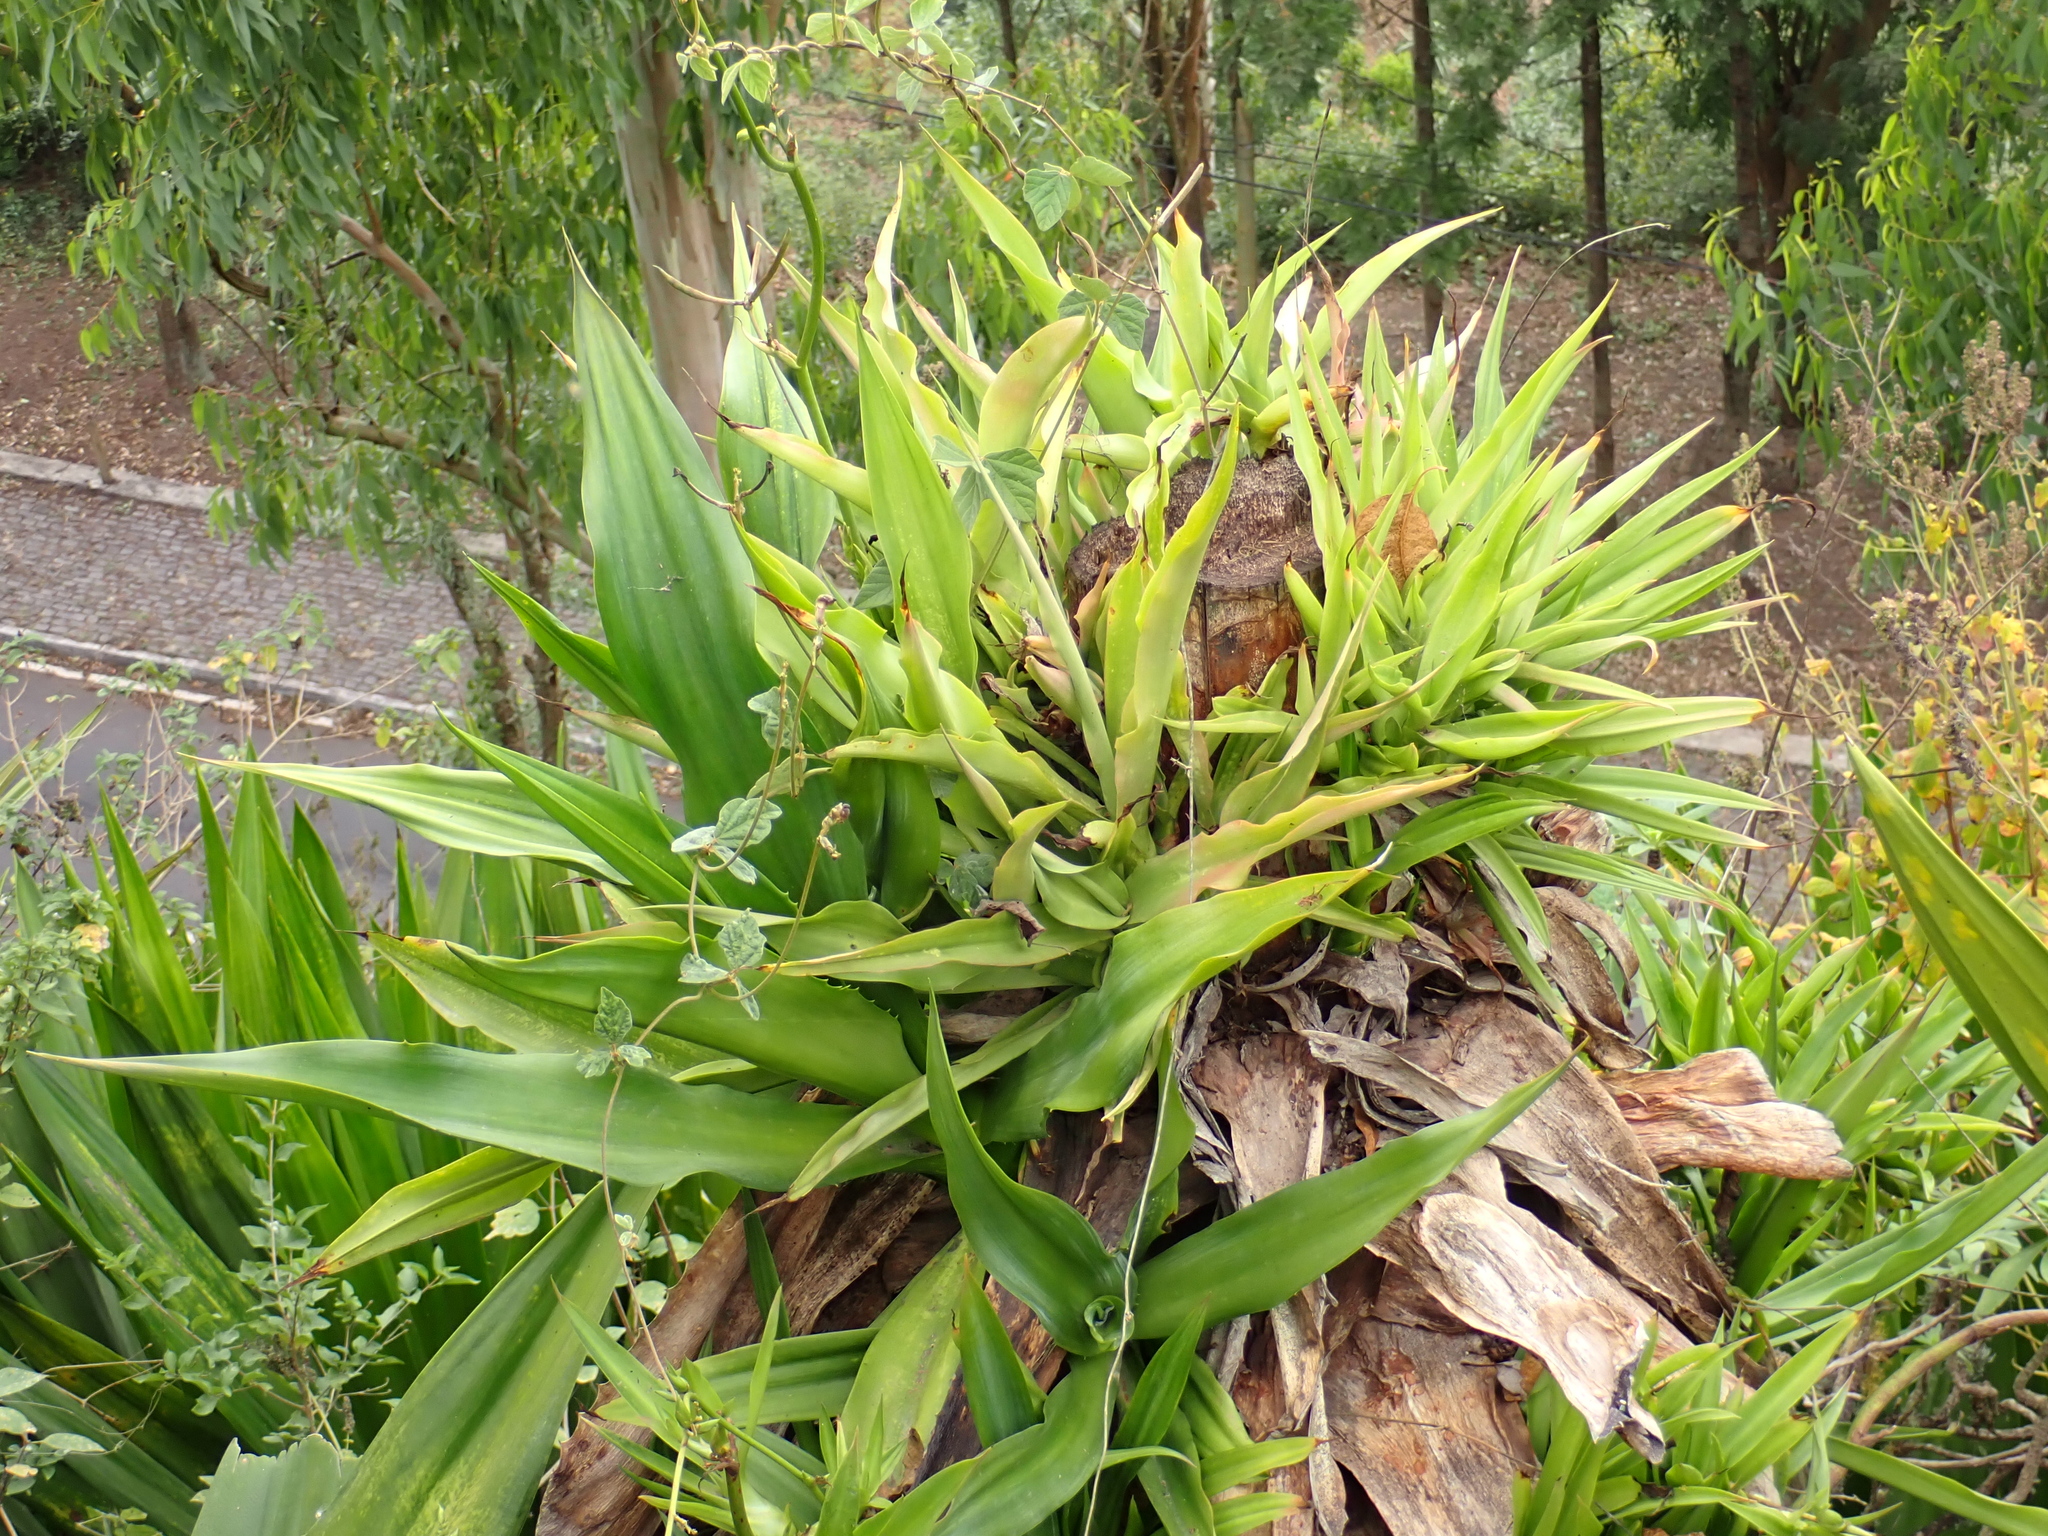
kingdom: Plantae
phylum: Tracheophyta
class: Liliopsida
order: Asparagales
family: Asparagaceae
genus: Furcraea
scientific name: Furcraea foetida
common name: Mauritius hemp
